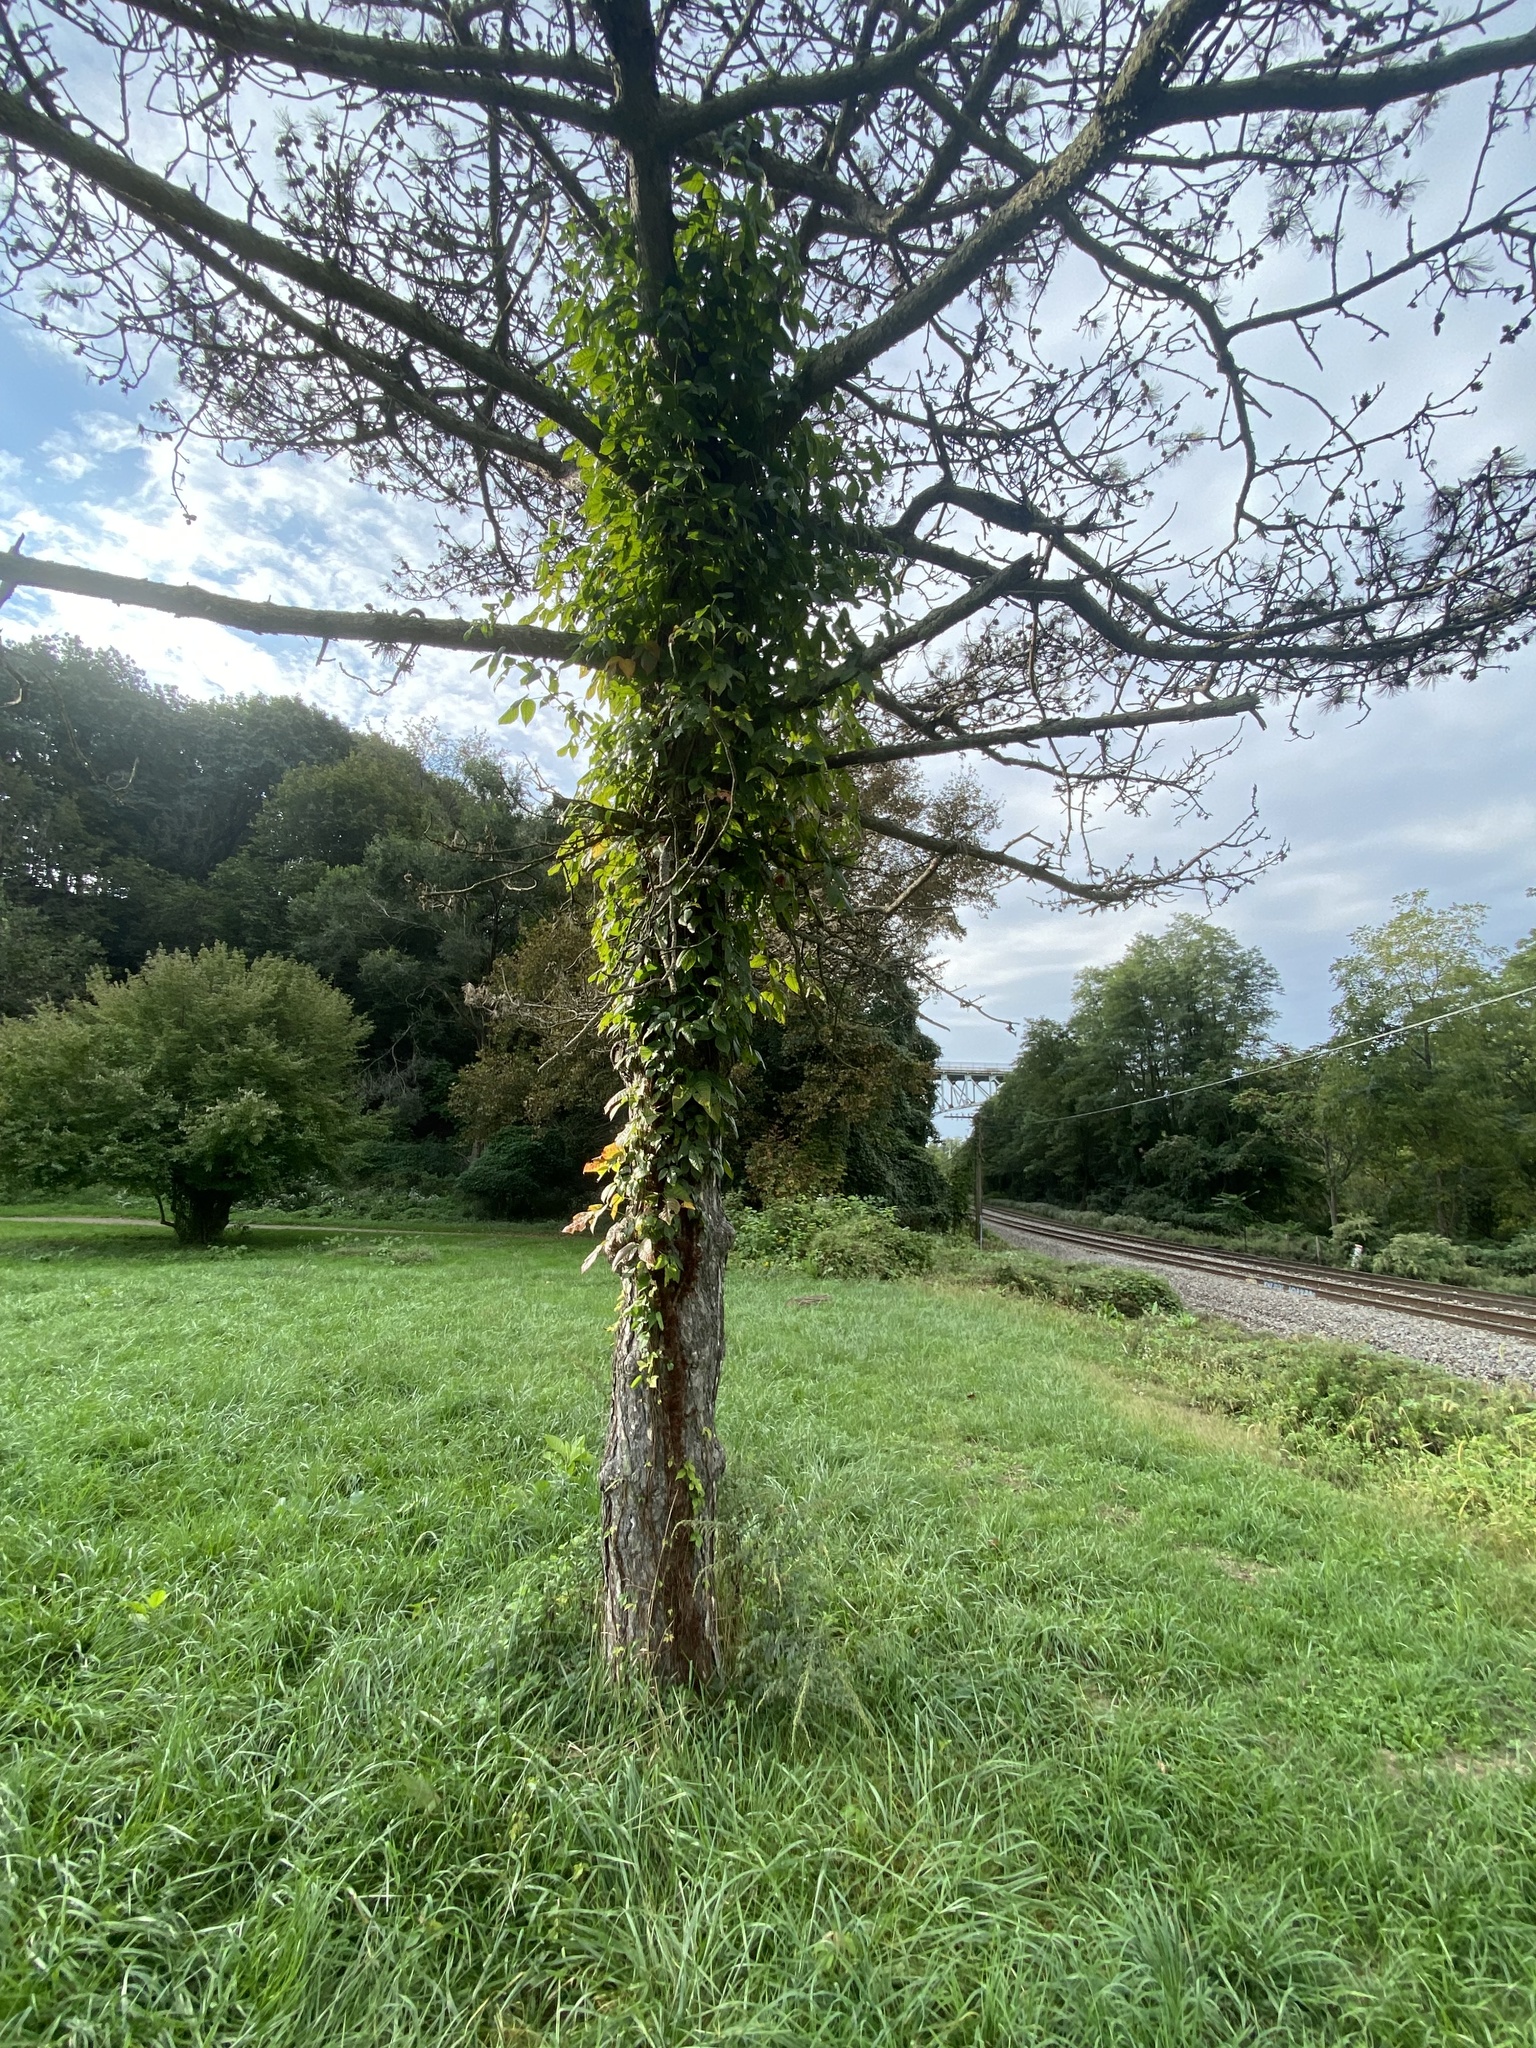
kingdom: Plantae
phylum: Tracheophyta
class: Magnoliopsida
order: Sapindales
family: Anacardiaceae
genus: Toxicodendron
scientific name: Toxicodendron radicans
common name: Poison ivy
